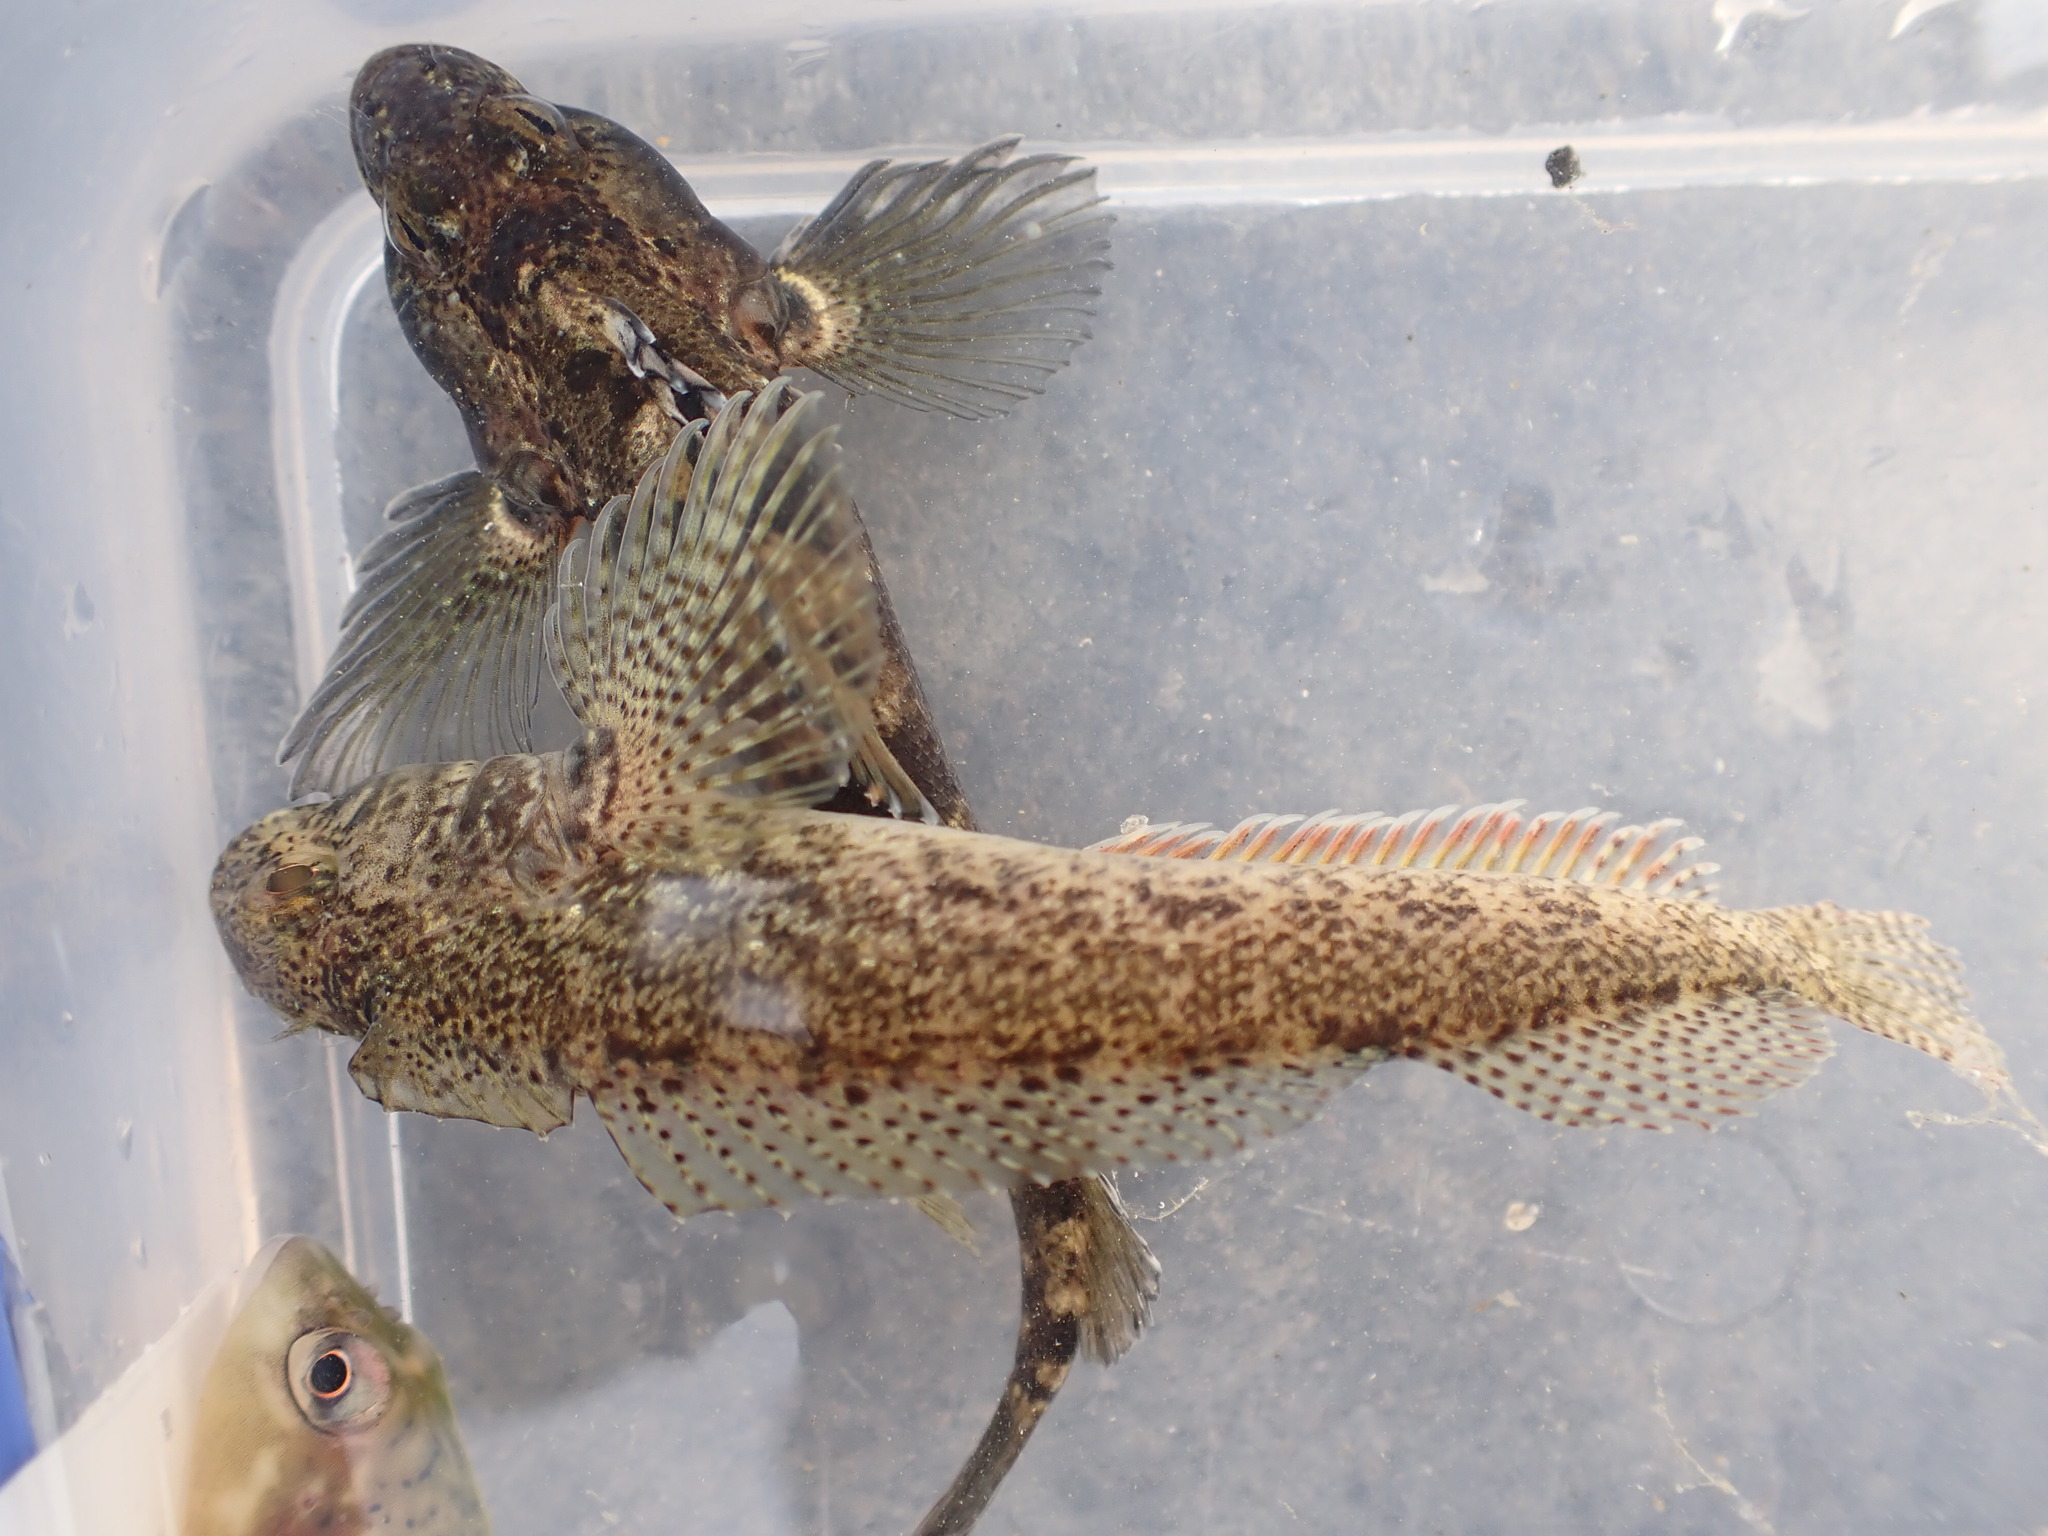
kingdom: Animalia
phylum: Chordata
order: Perciformes
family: Tripterygiidae
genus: Forsterygion
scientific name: Forsterygion gymnotum
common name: Multifid-tentacled robust triplefin
